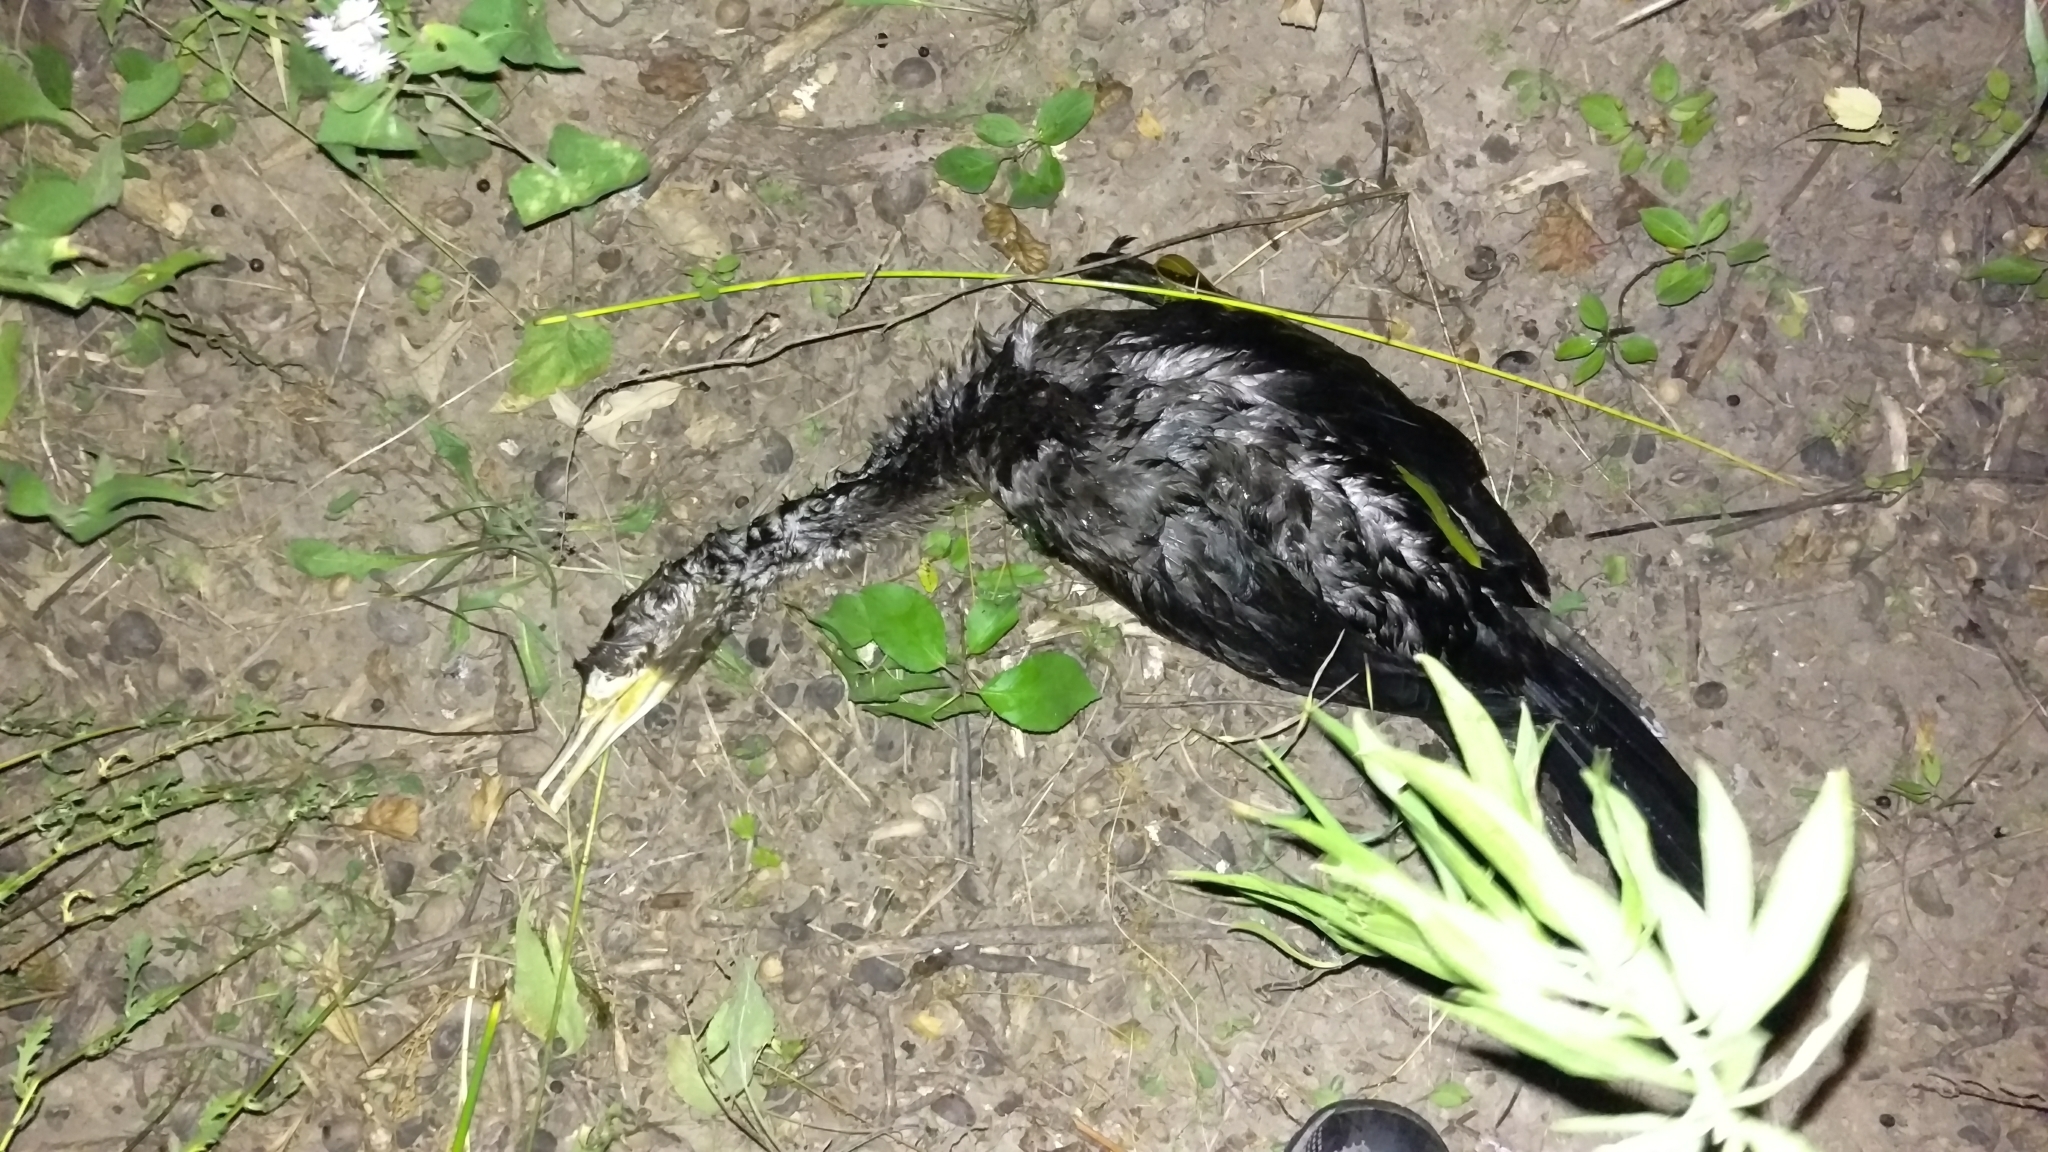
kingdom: Animalia
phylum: Chordata
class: Aves
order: Suliformes
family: Phalacrocoracidae
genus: Phalacrocorax
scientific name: Phalacrocorax auritus
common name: Double-crested cormorant
